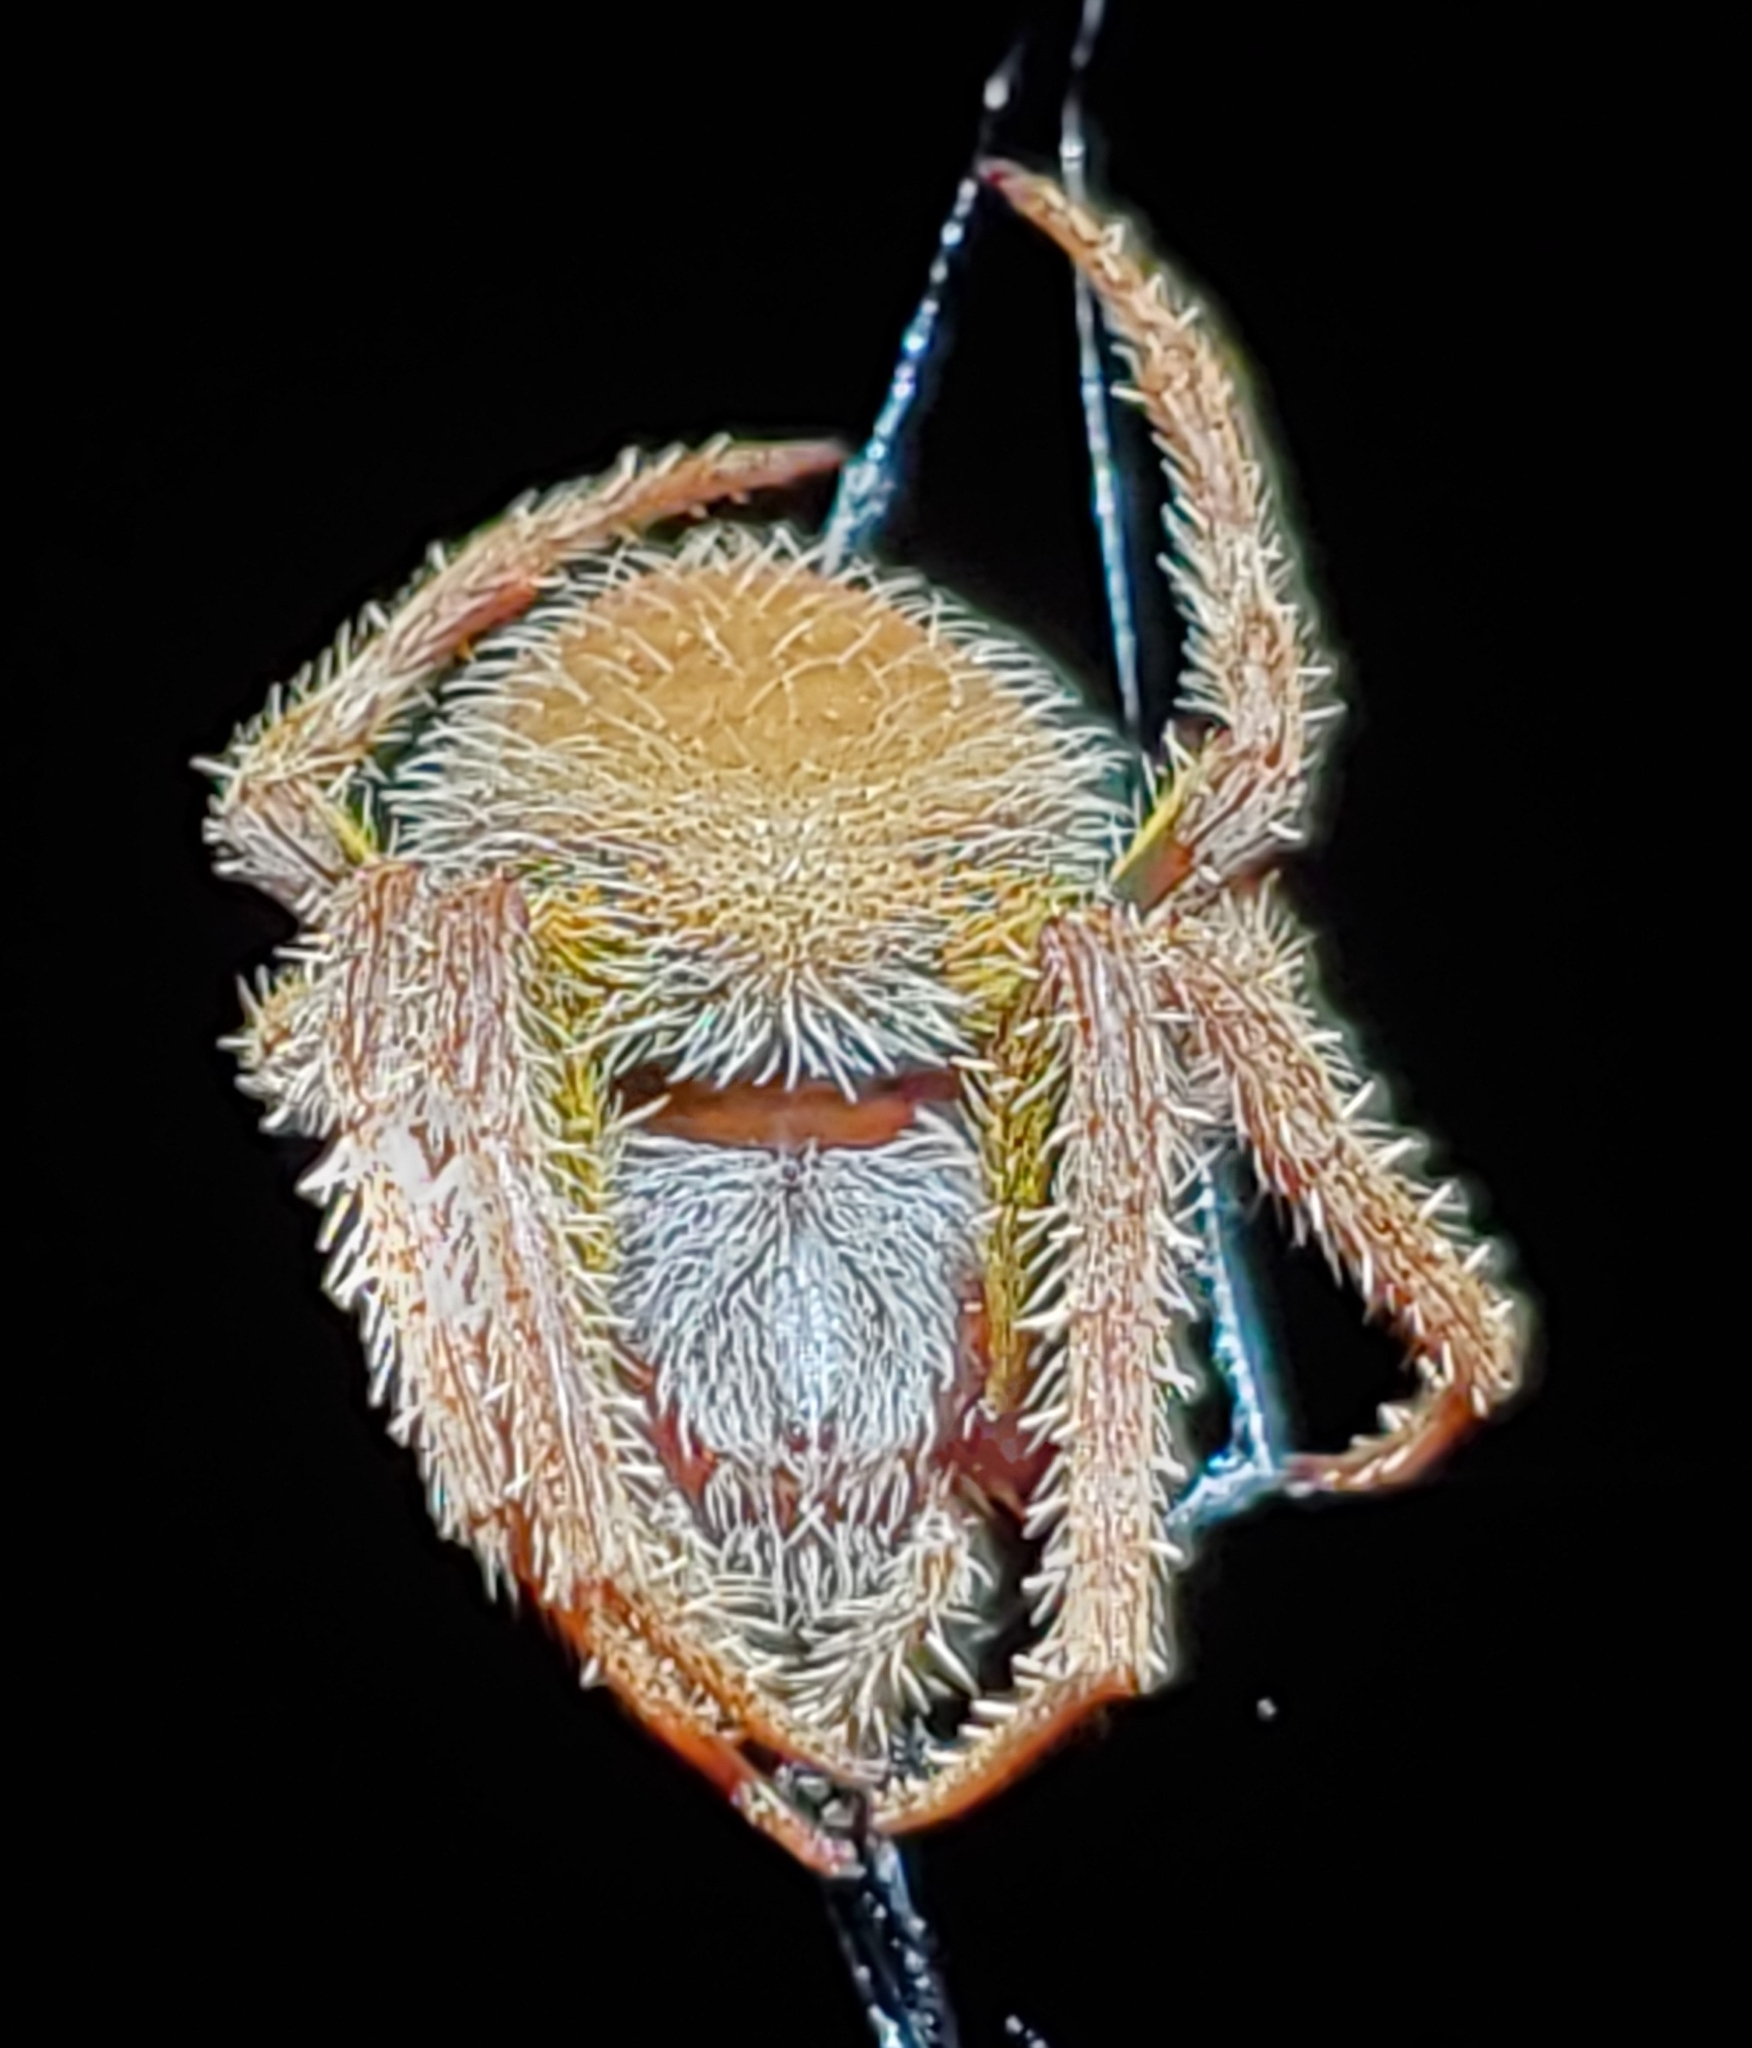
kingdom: Animalia
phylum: Arthropoda
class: Arachnida
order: Araneae
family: Araneidae
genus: Eriophora
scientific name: Eriophora ravilla
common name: Orb weavers
